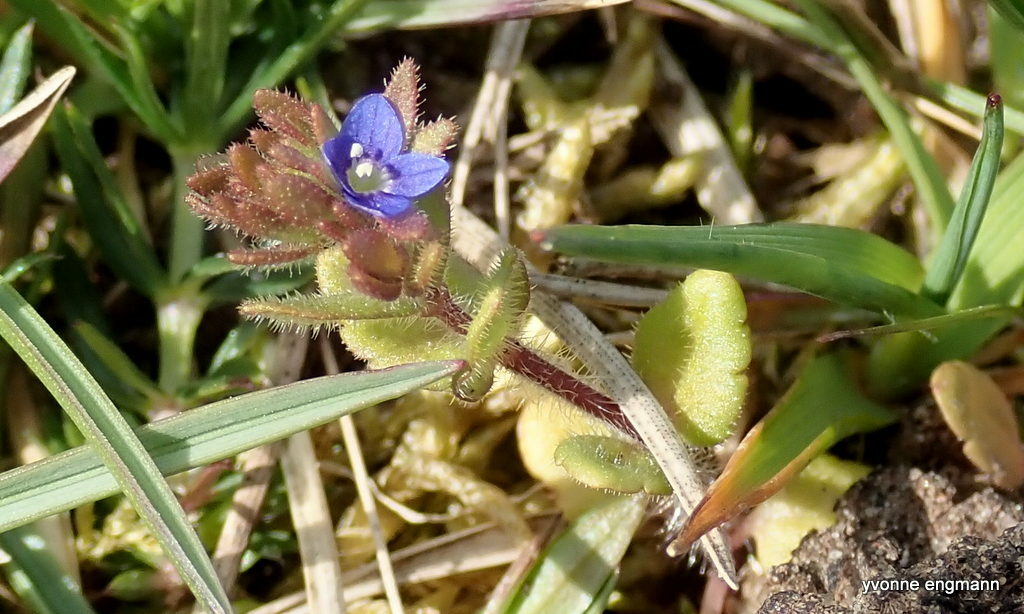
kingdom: Plantae
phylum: Tracheophyta
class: Magnoliopsida
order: Lamiales
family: Plantaginaceae
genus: Veronica
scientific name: Veronica arvensis
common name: Corn speedwell
